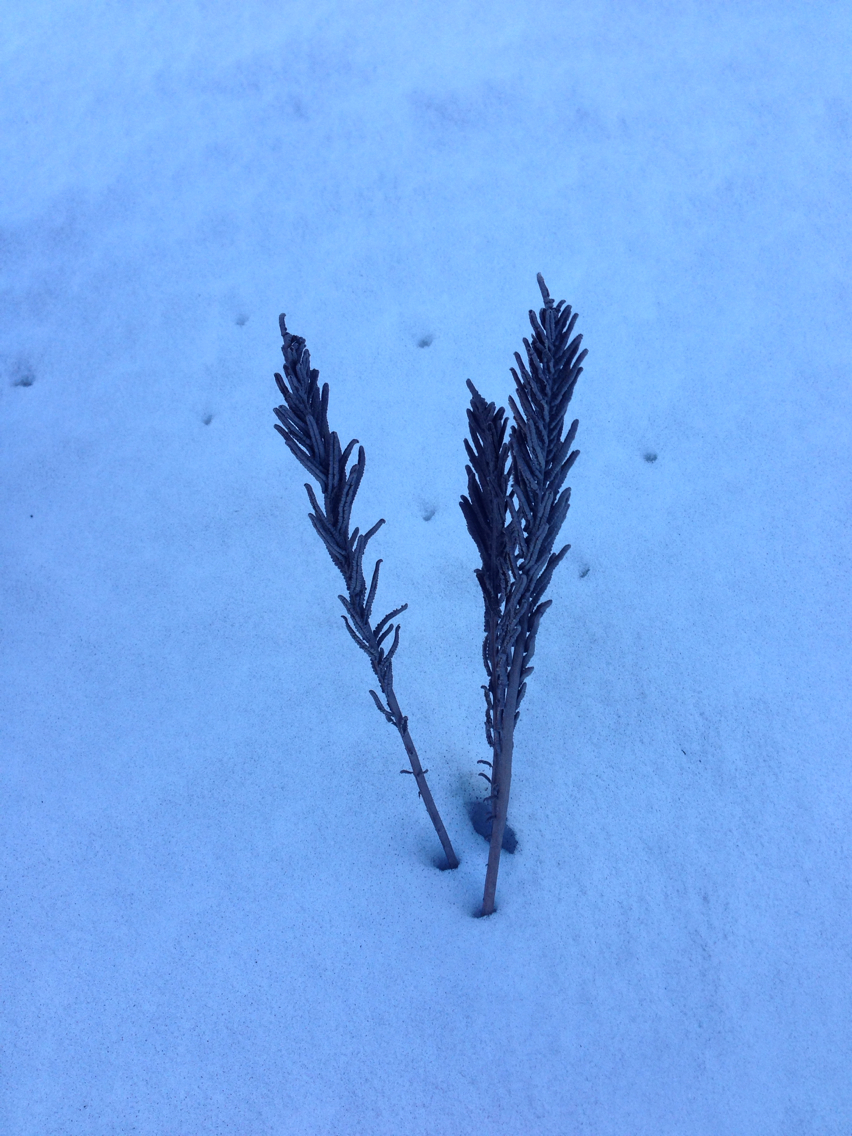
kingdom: Plantae
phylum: Tracheophyta
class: Polypodiopsida
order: Polypodiales
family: Onocleaceae
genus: Matteuccia
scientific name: Matteuccia struthiopteris
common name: Ostrich fern
